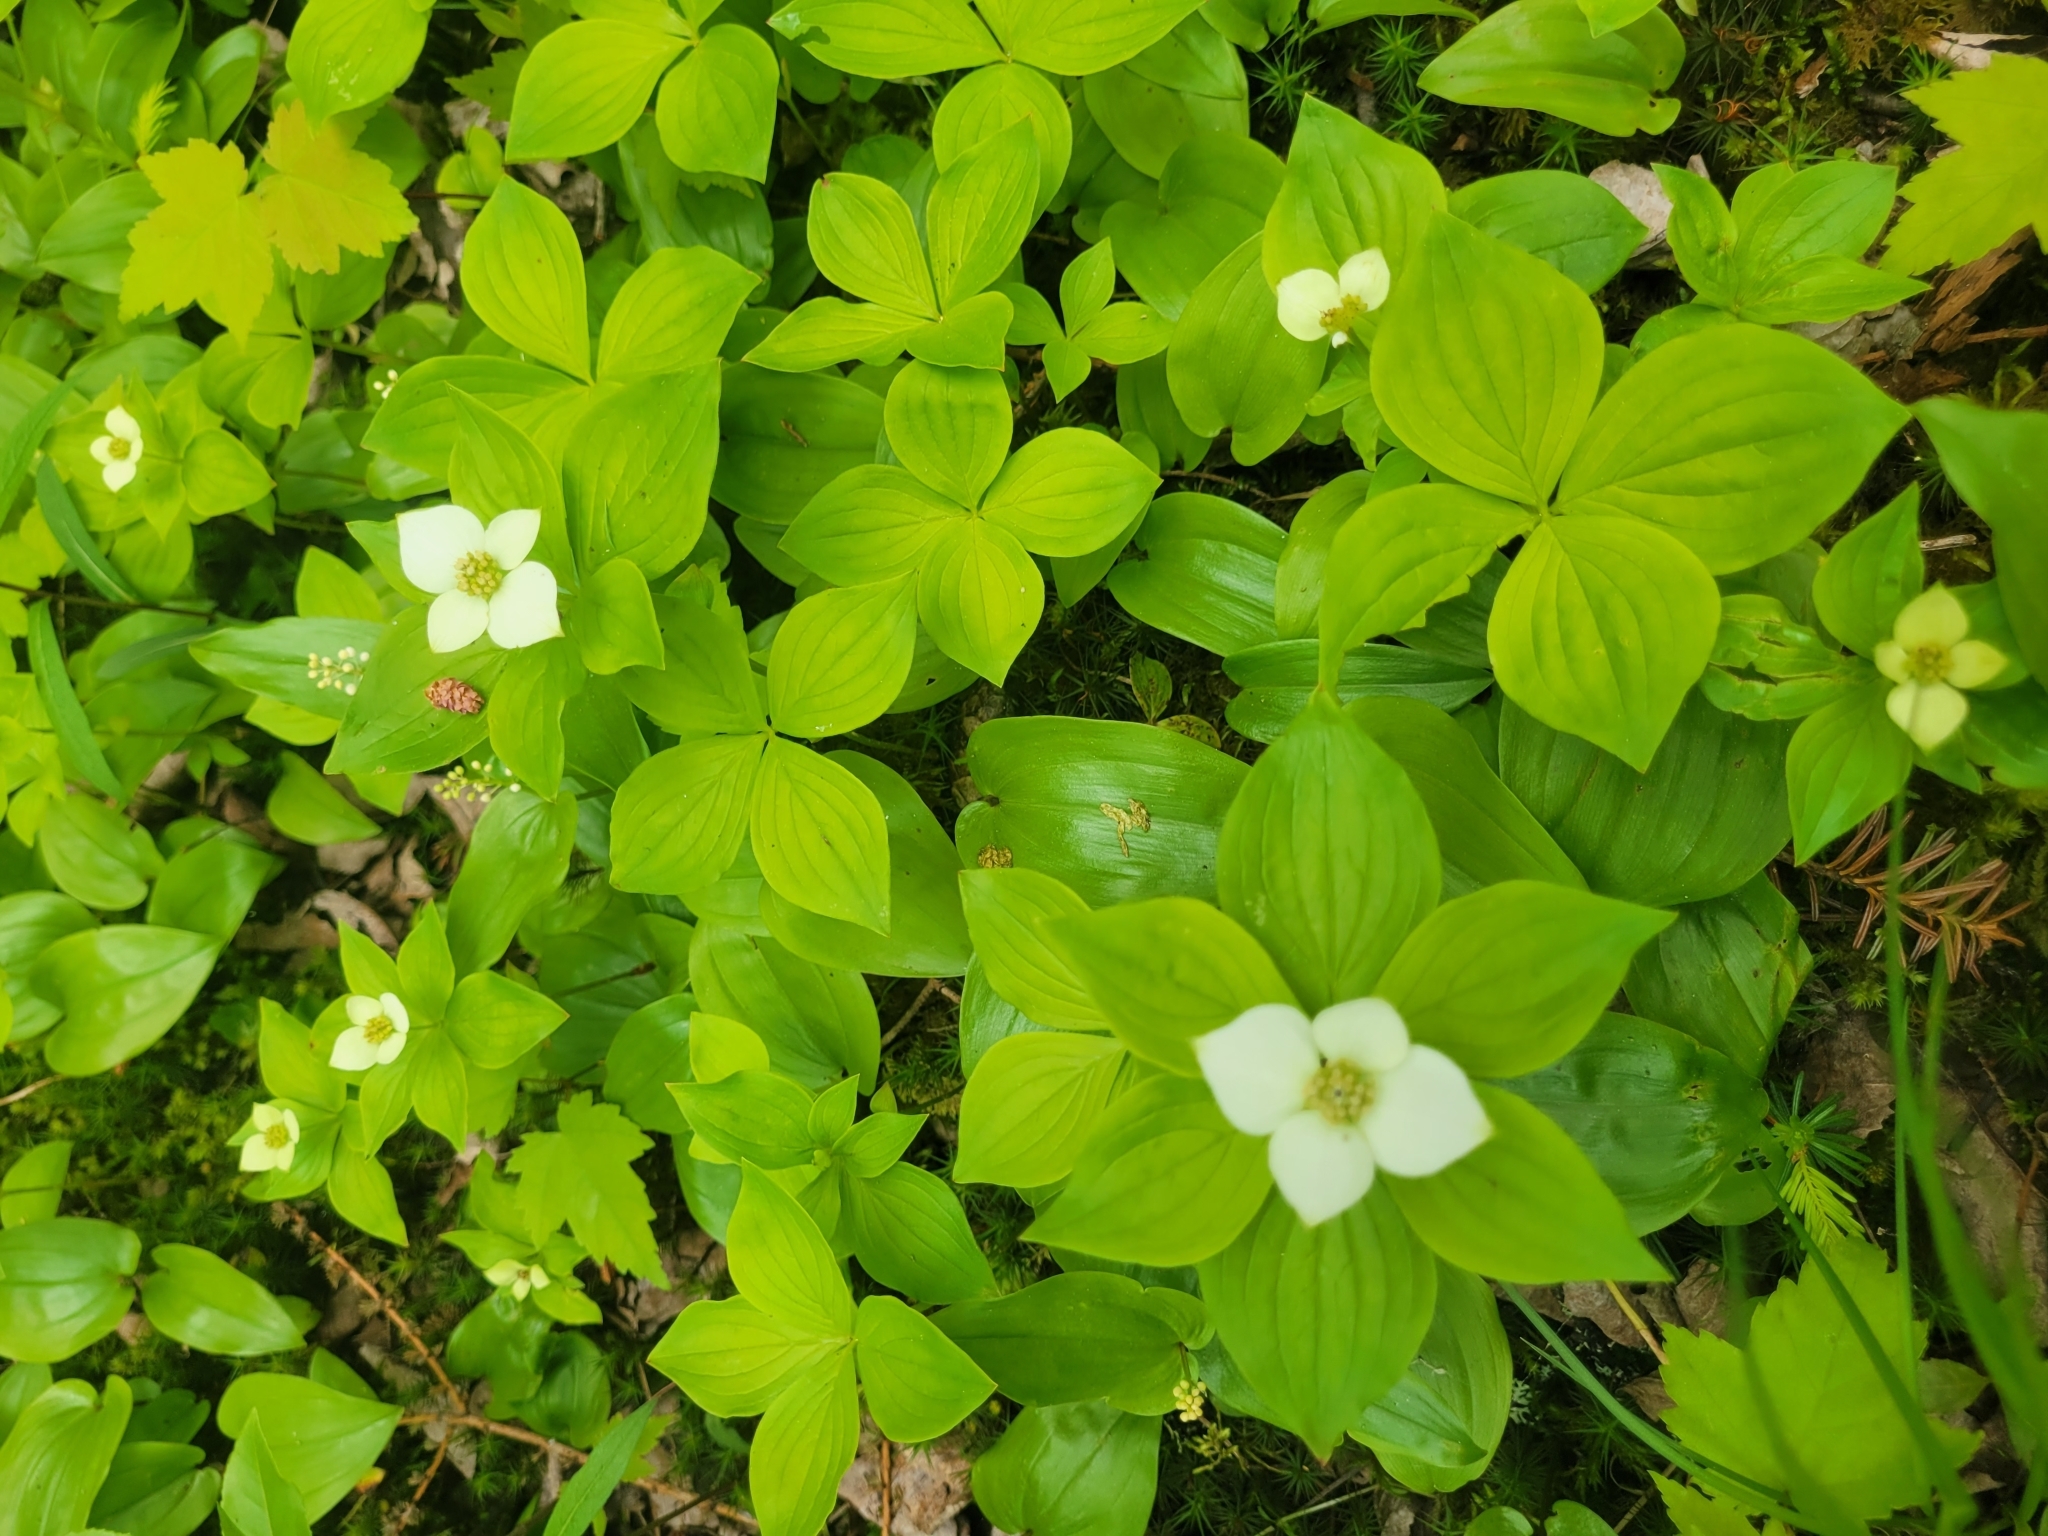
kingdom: Plantae
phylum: Tracheophyta
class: Magnoliopsida
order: Cornales
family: Cornaceae
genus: Cornus
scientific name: Cornus canadensis
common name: Creeping dogwood
